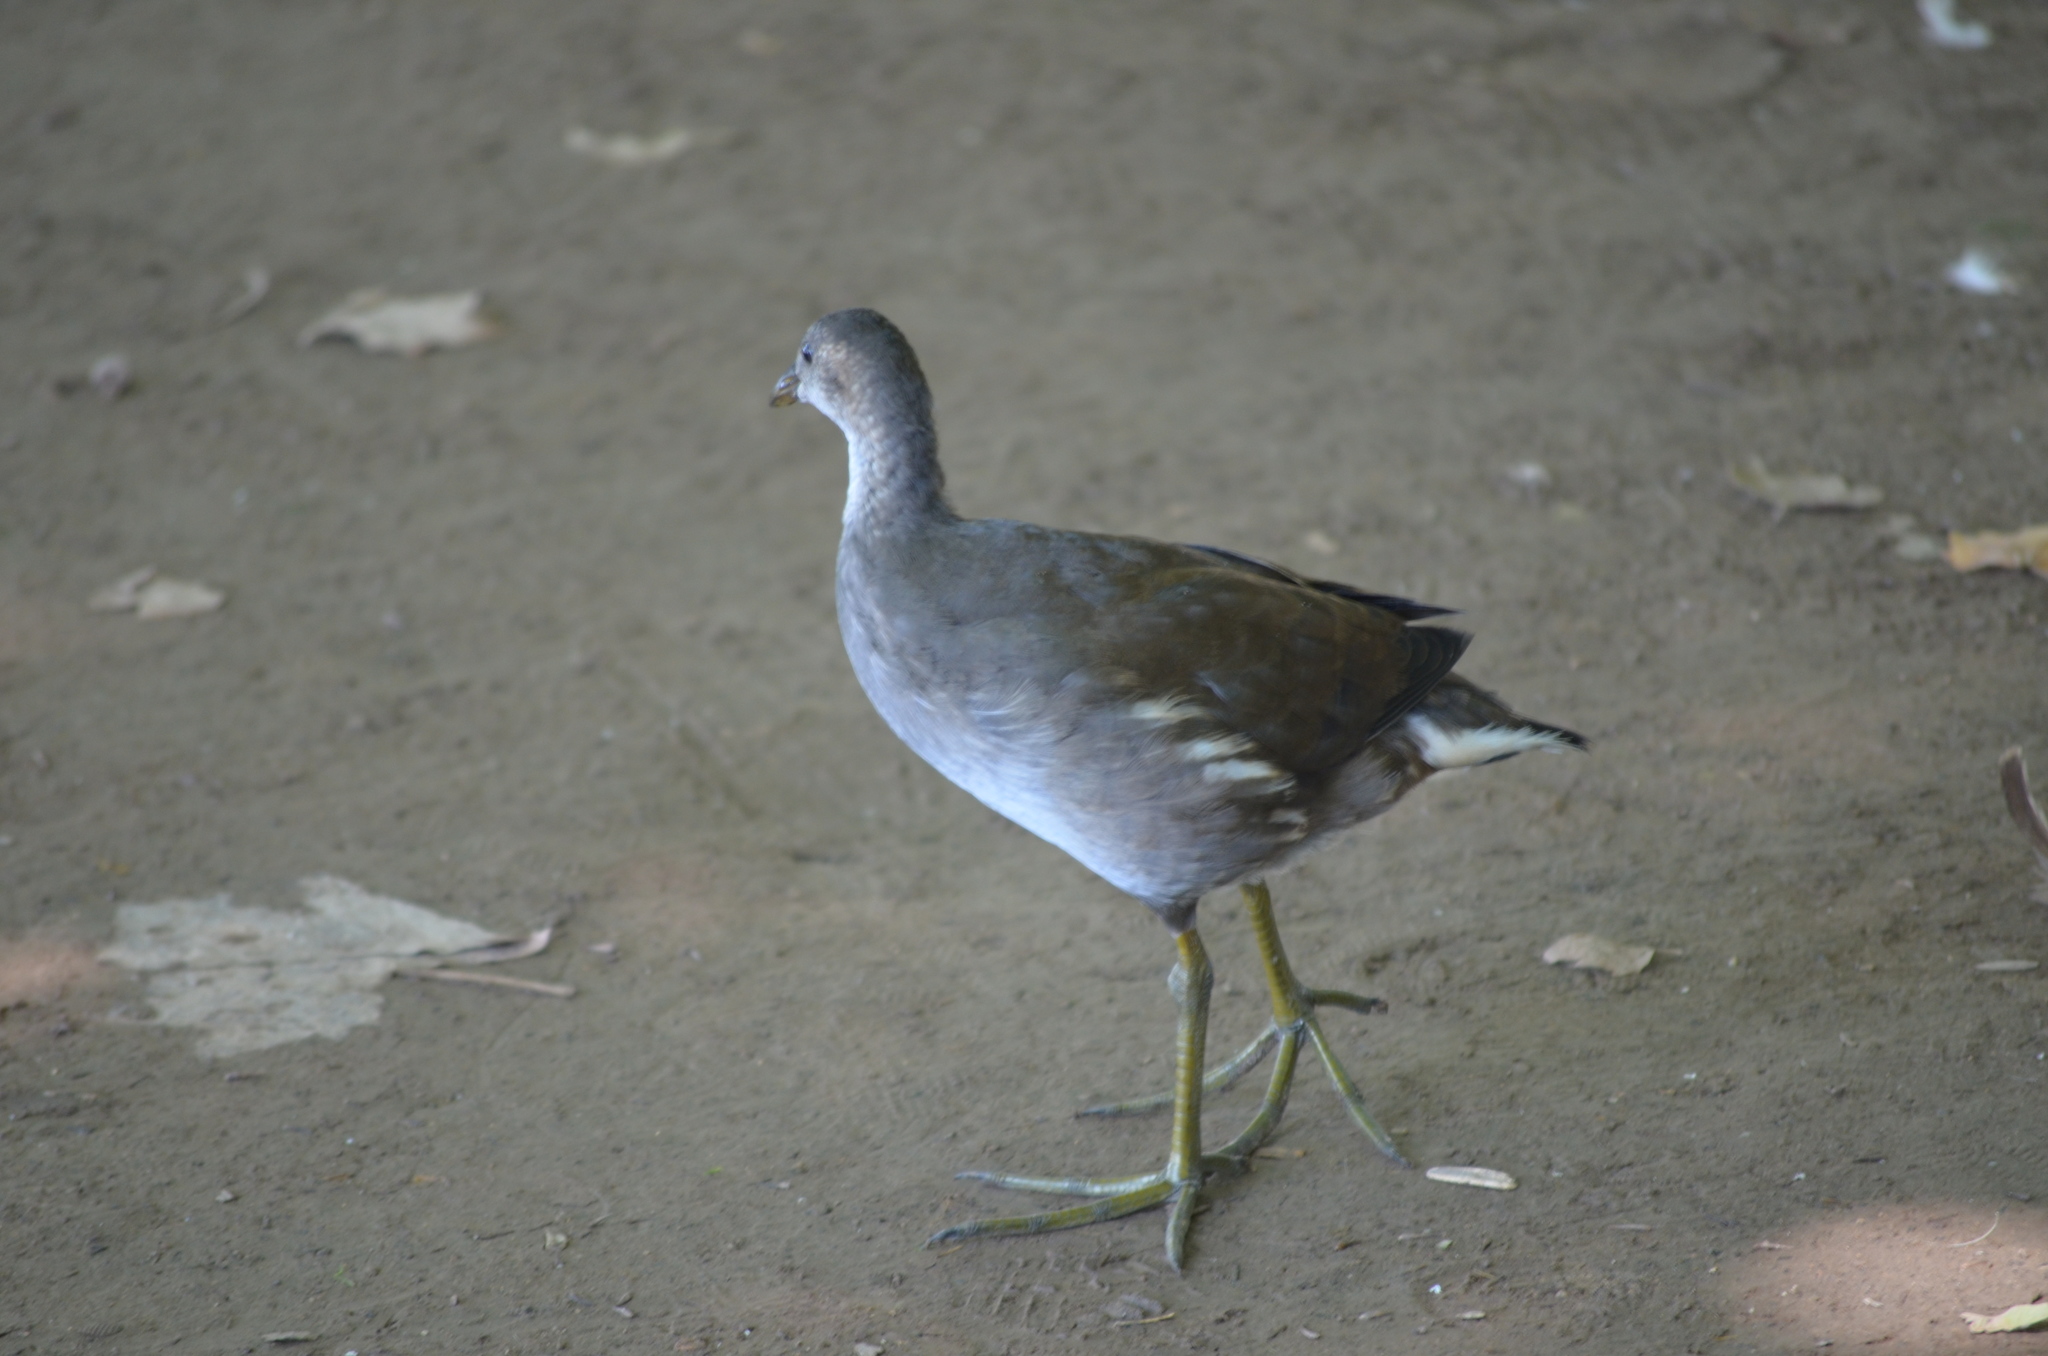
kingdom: Animalia
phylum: Chordata
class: Aves
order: Gruiformes
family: Rallidae
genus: Gallinula
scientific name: Gallinula chloropus
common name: Common moorhen
